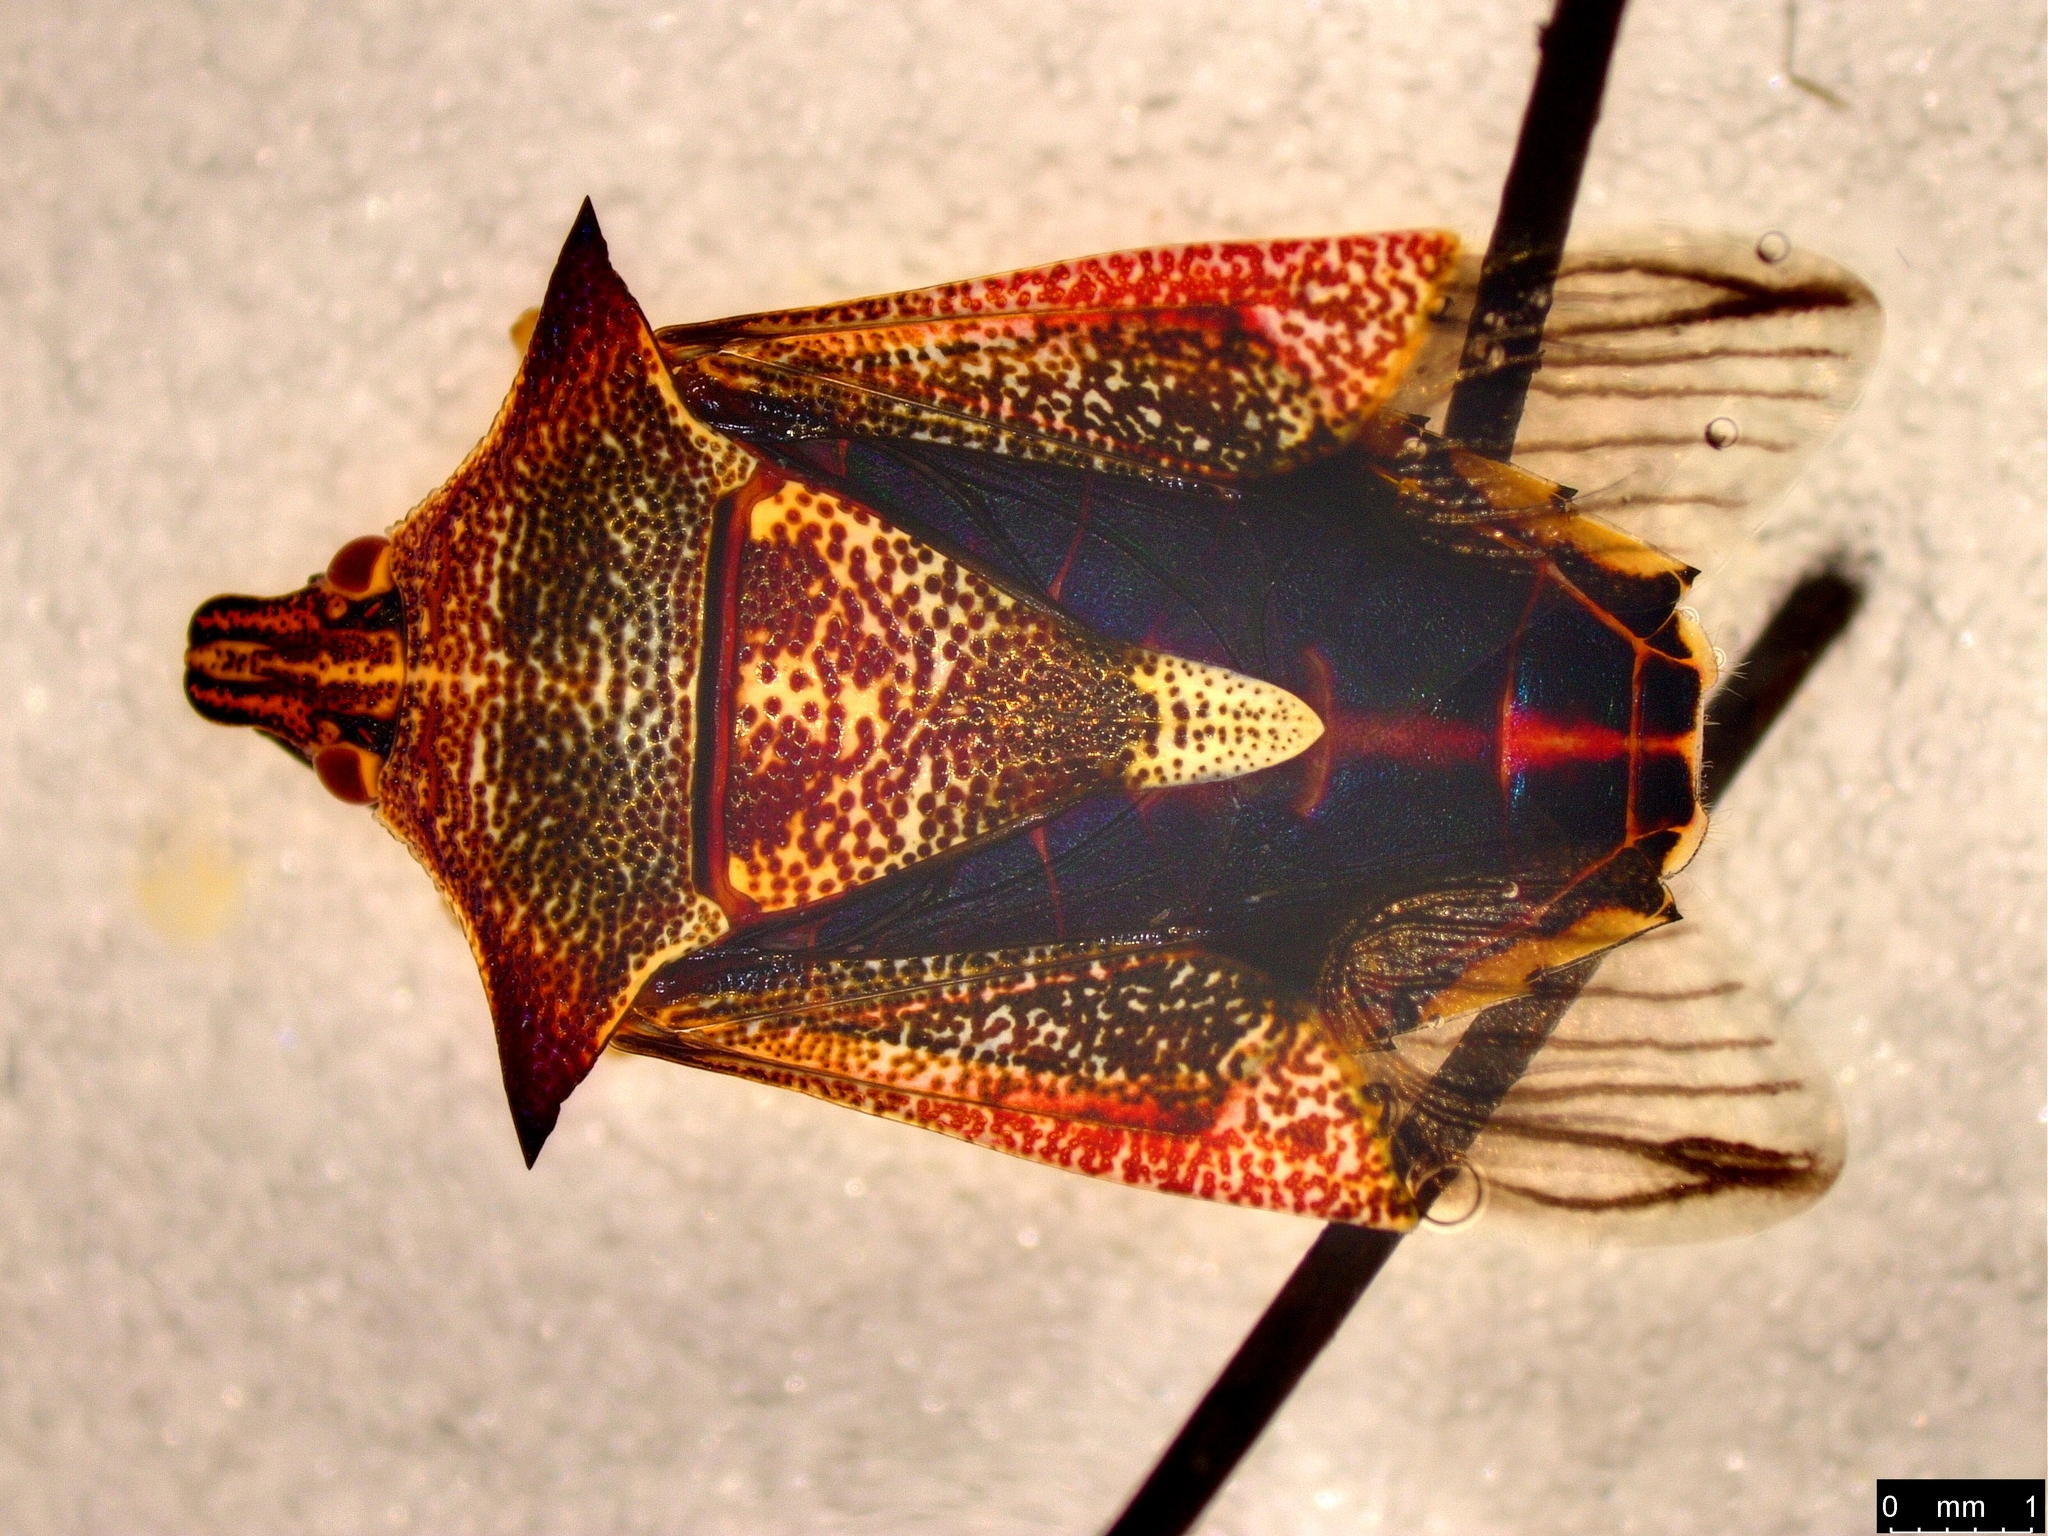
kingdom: Animalia
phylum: Arthropoda
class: Insecta
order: Hemiptera
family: Pentatomidae
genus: Oechalia
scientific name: Oechalia schellenbergii
